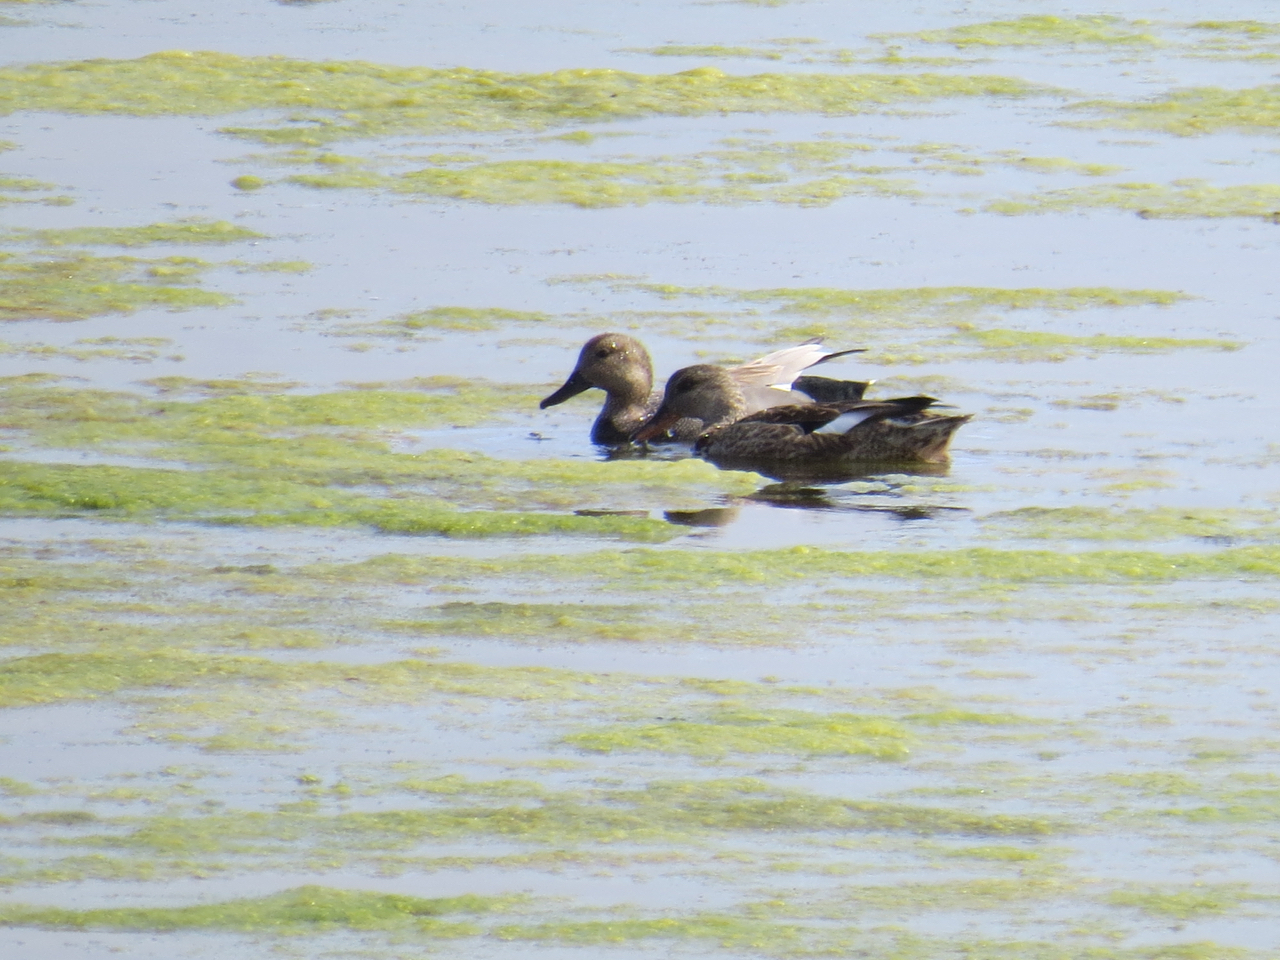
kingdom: Animalia
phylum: Chordata
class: Aves
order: Anseriformes
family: Anatidae
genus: Mareca
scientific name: Mareca strepera
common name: Gadwall
